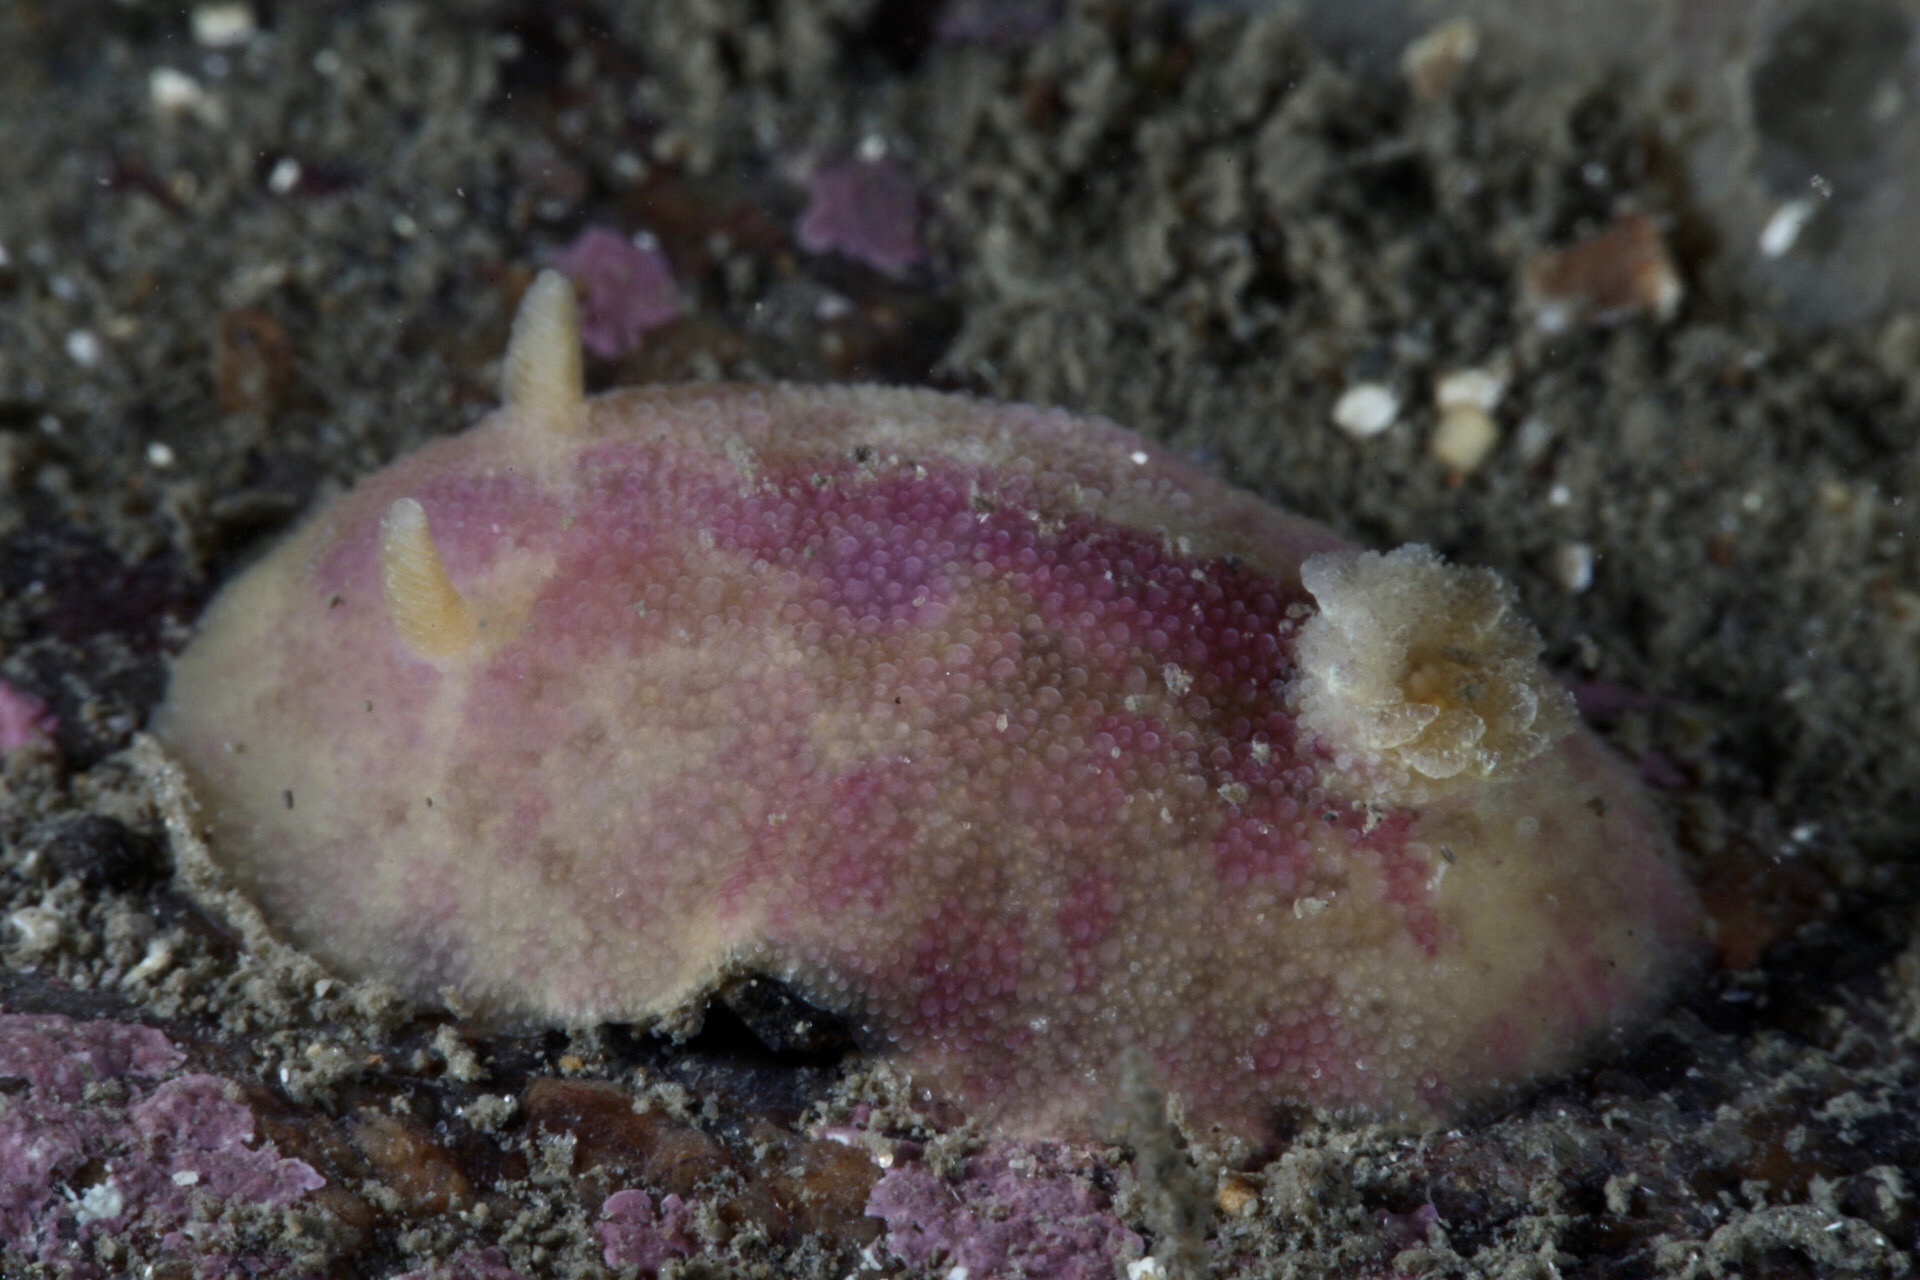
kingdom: Animalia
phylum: Mollusca
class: Gastropoda
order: Nudibranchia
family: Dorididae
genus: Doris
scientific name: Doris pseudoargus
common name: Sea lemon
